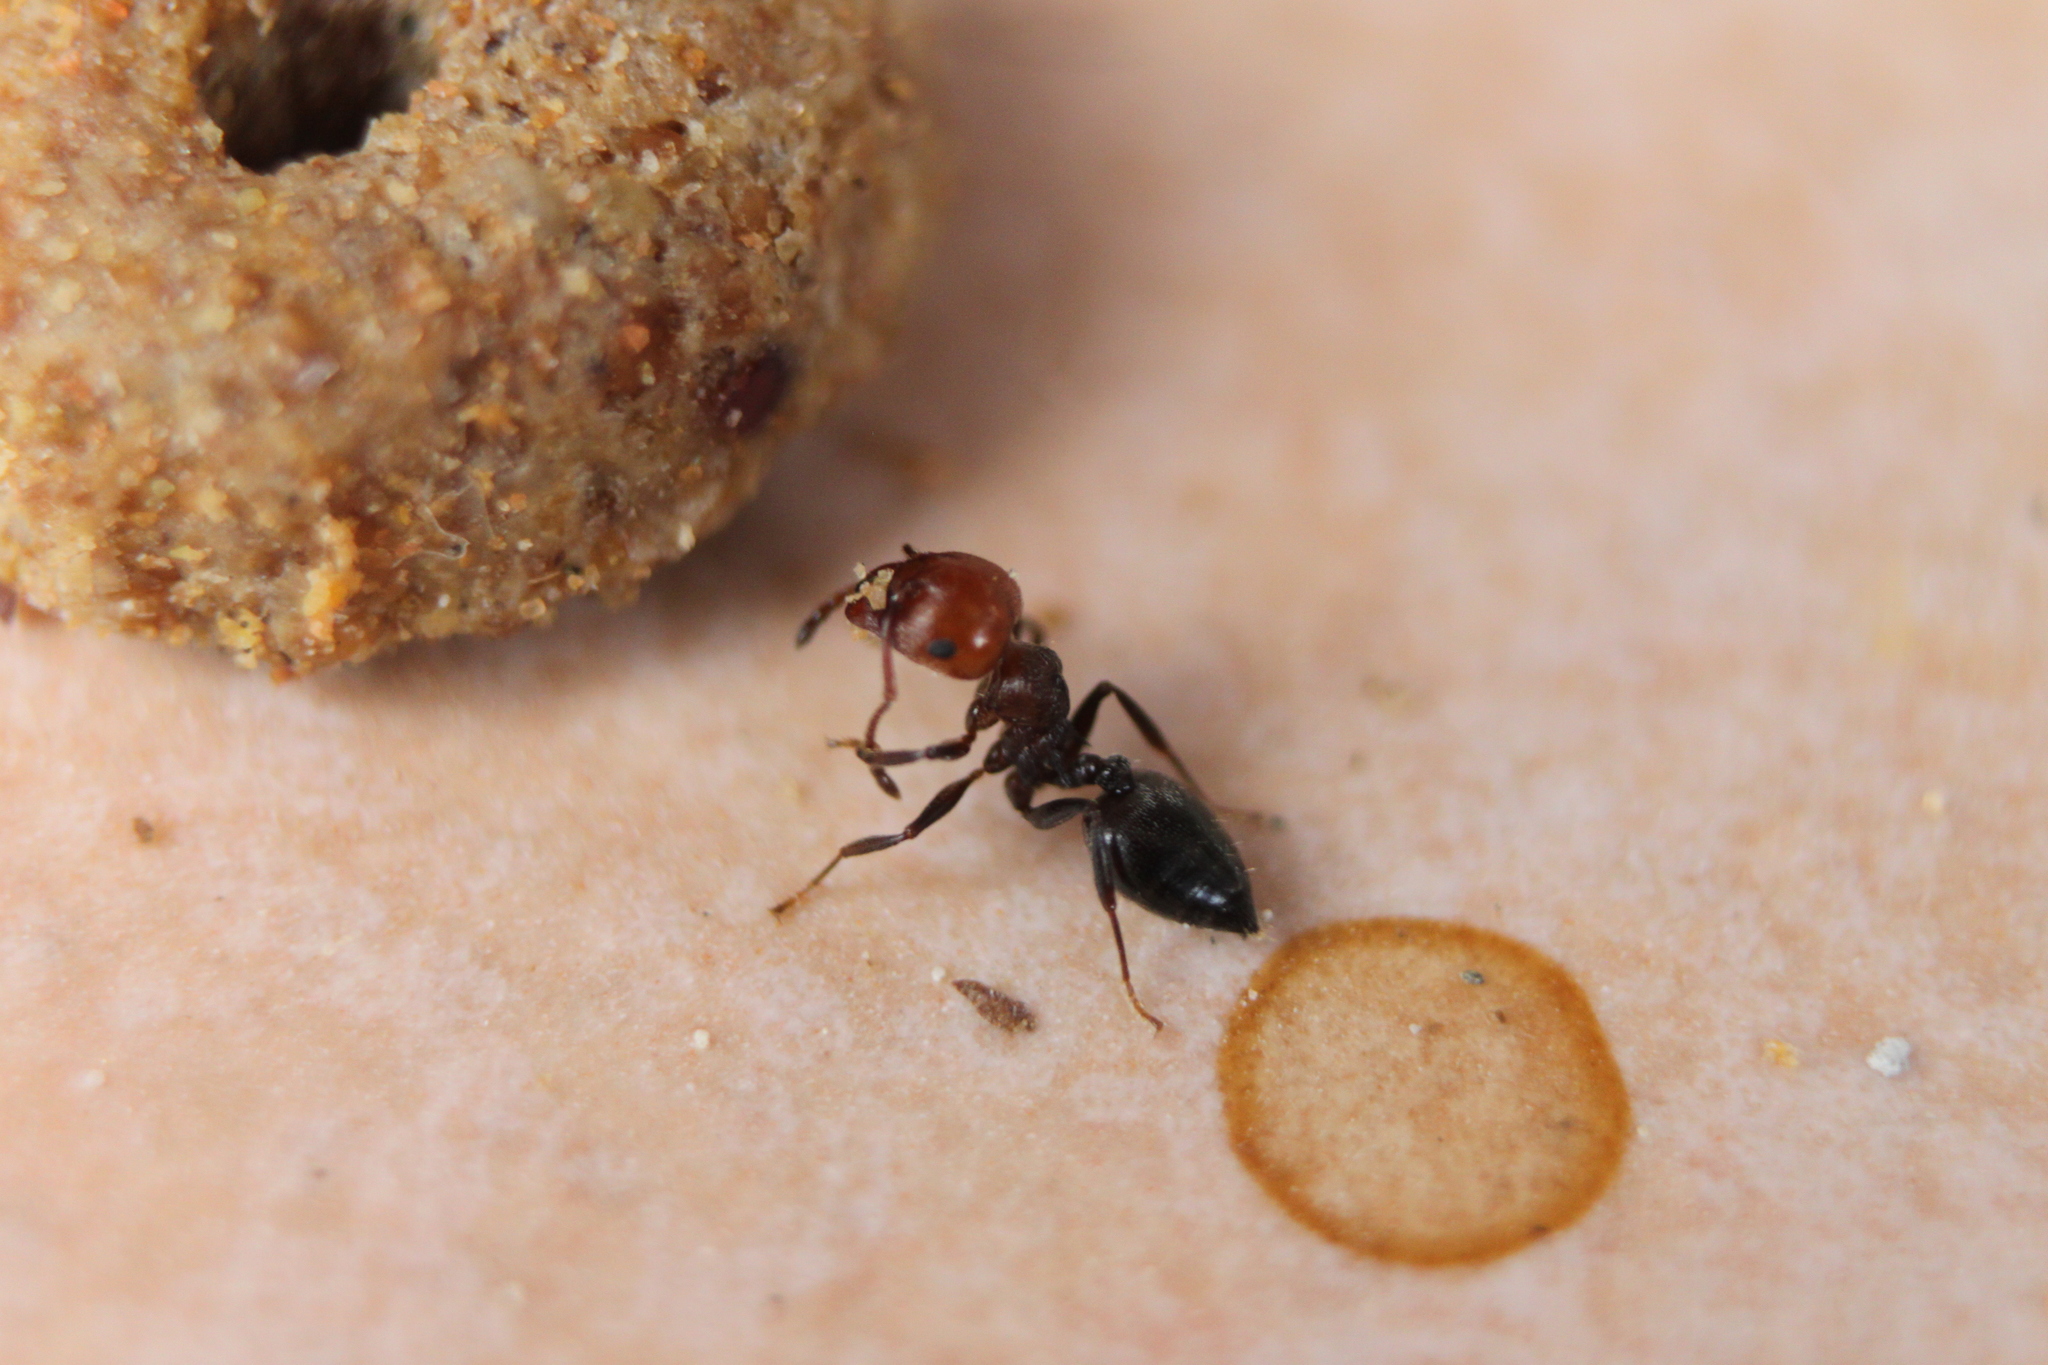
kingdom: Animalia
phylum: Arthropoda
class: Insecta
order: Hymenoptera
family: Formicidae
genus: Crematogaster
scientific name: Crematogaster scutellaris
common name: Fourmi du liège
